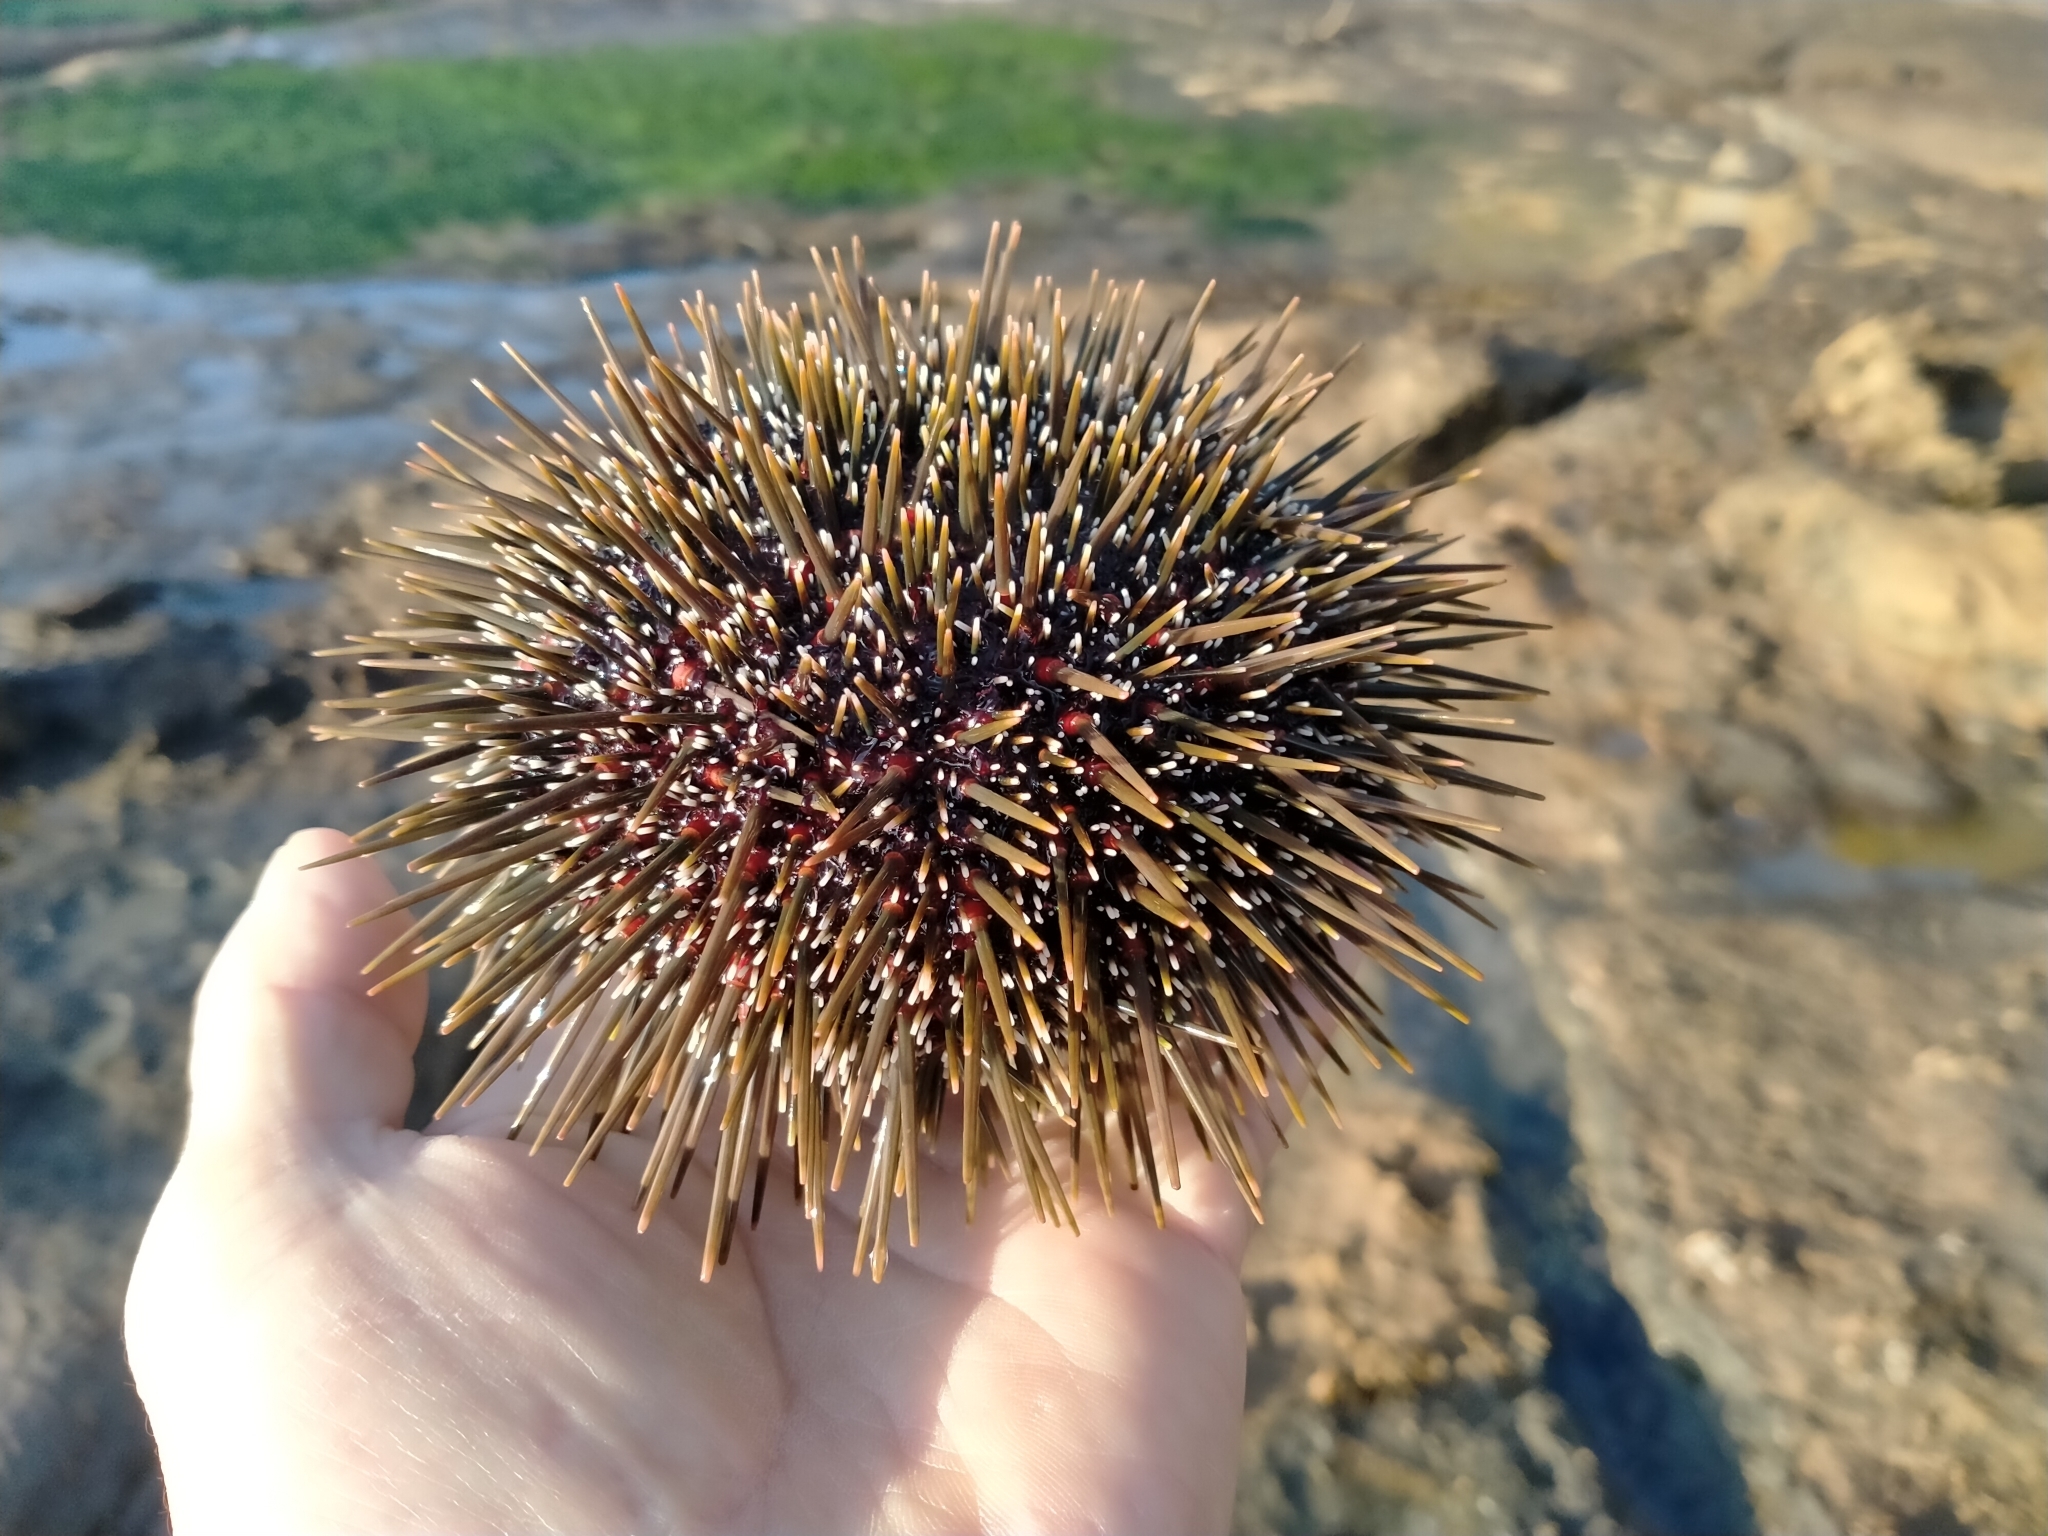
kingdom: Animalia
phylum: Echinodermata
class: Echinoidea
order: Camarodonta
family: Echinometridae
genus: Evechinus
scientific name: Evechinus chloroticus
